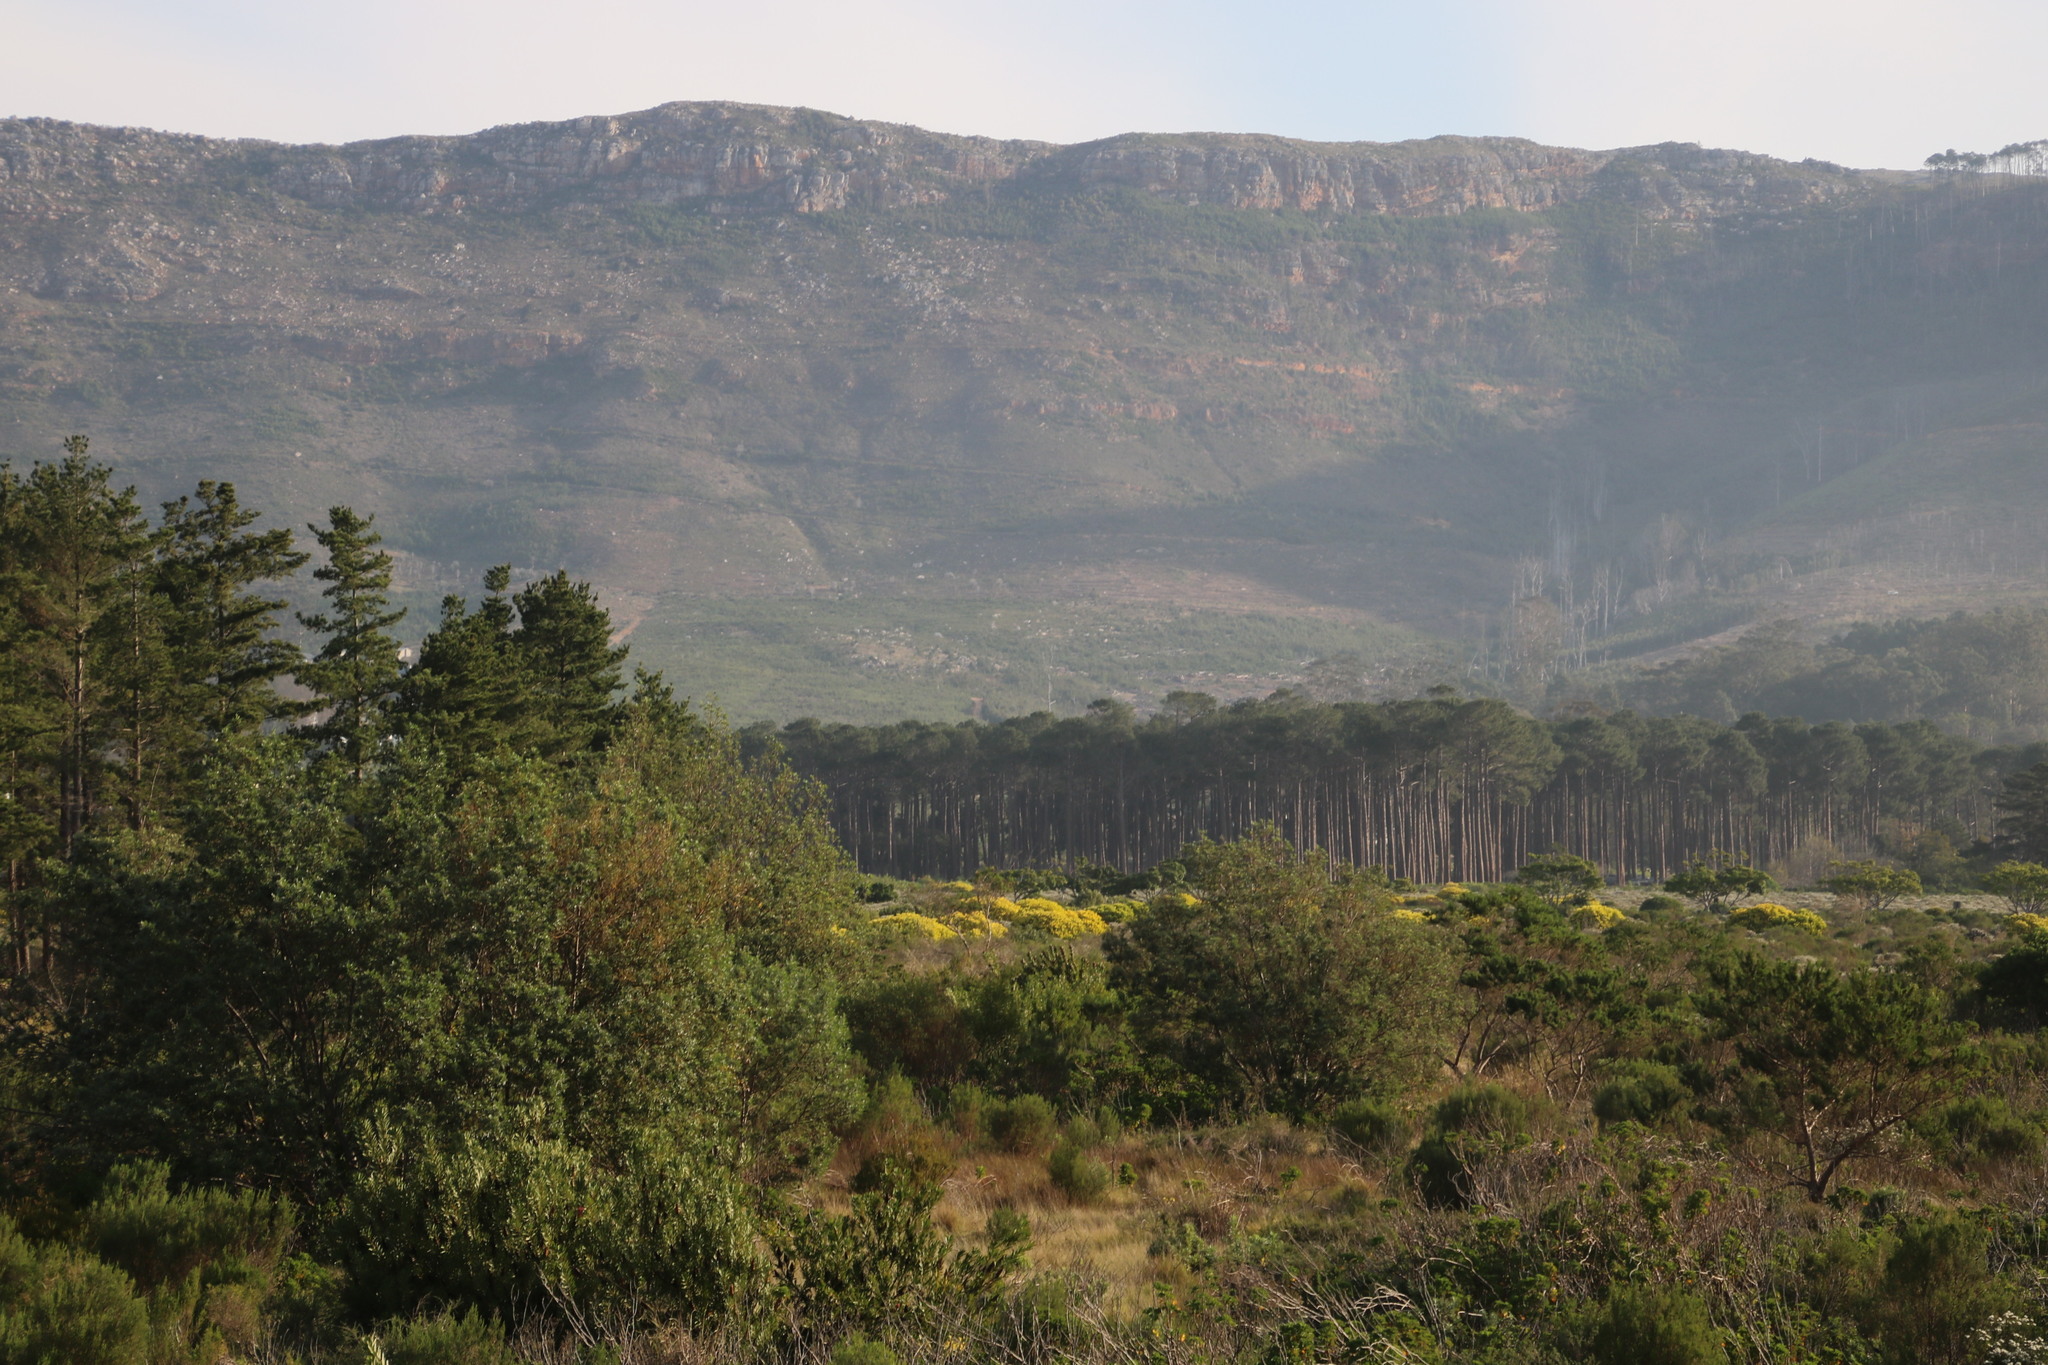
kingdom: Plantae
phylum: Tracheophyta
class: Magnoliopsida
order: Fabales
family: Fabaceae
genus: Virgilia
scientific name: Virgilia oroboides
